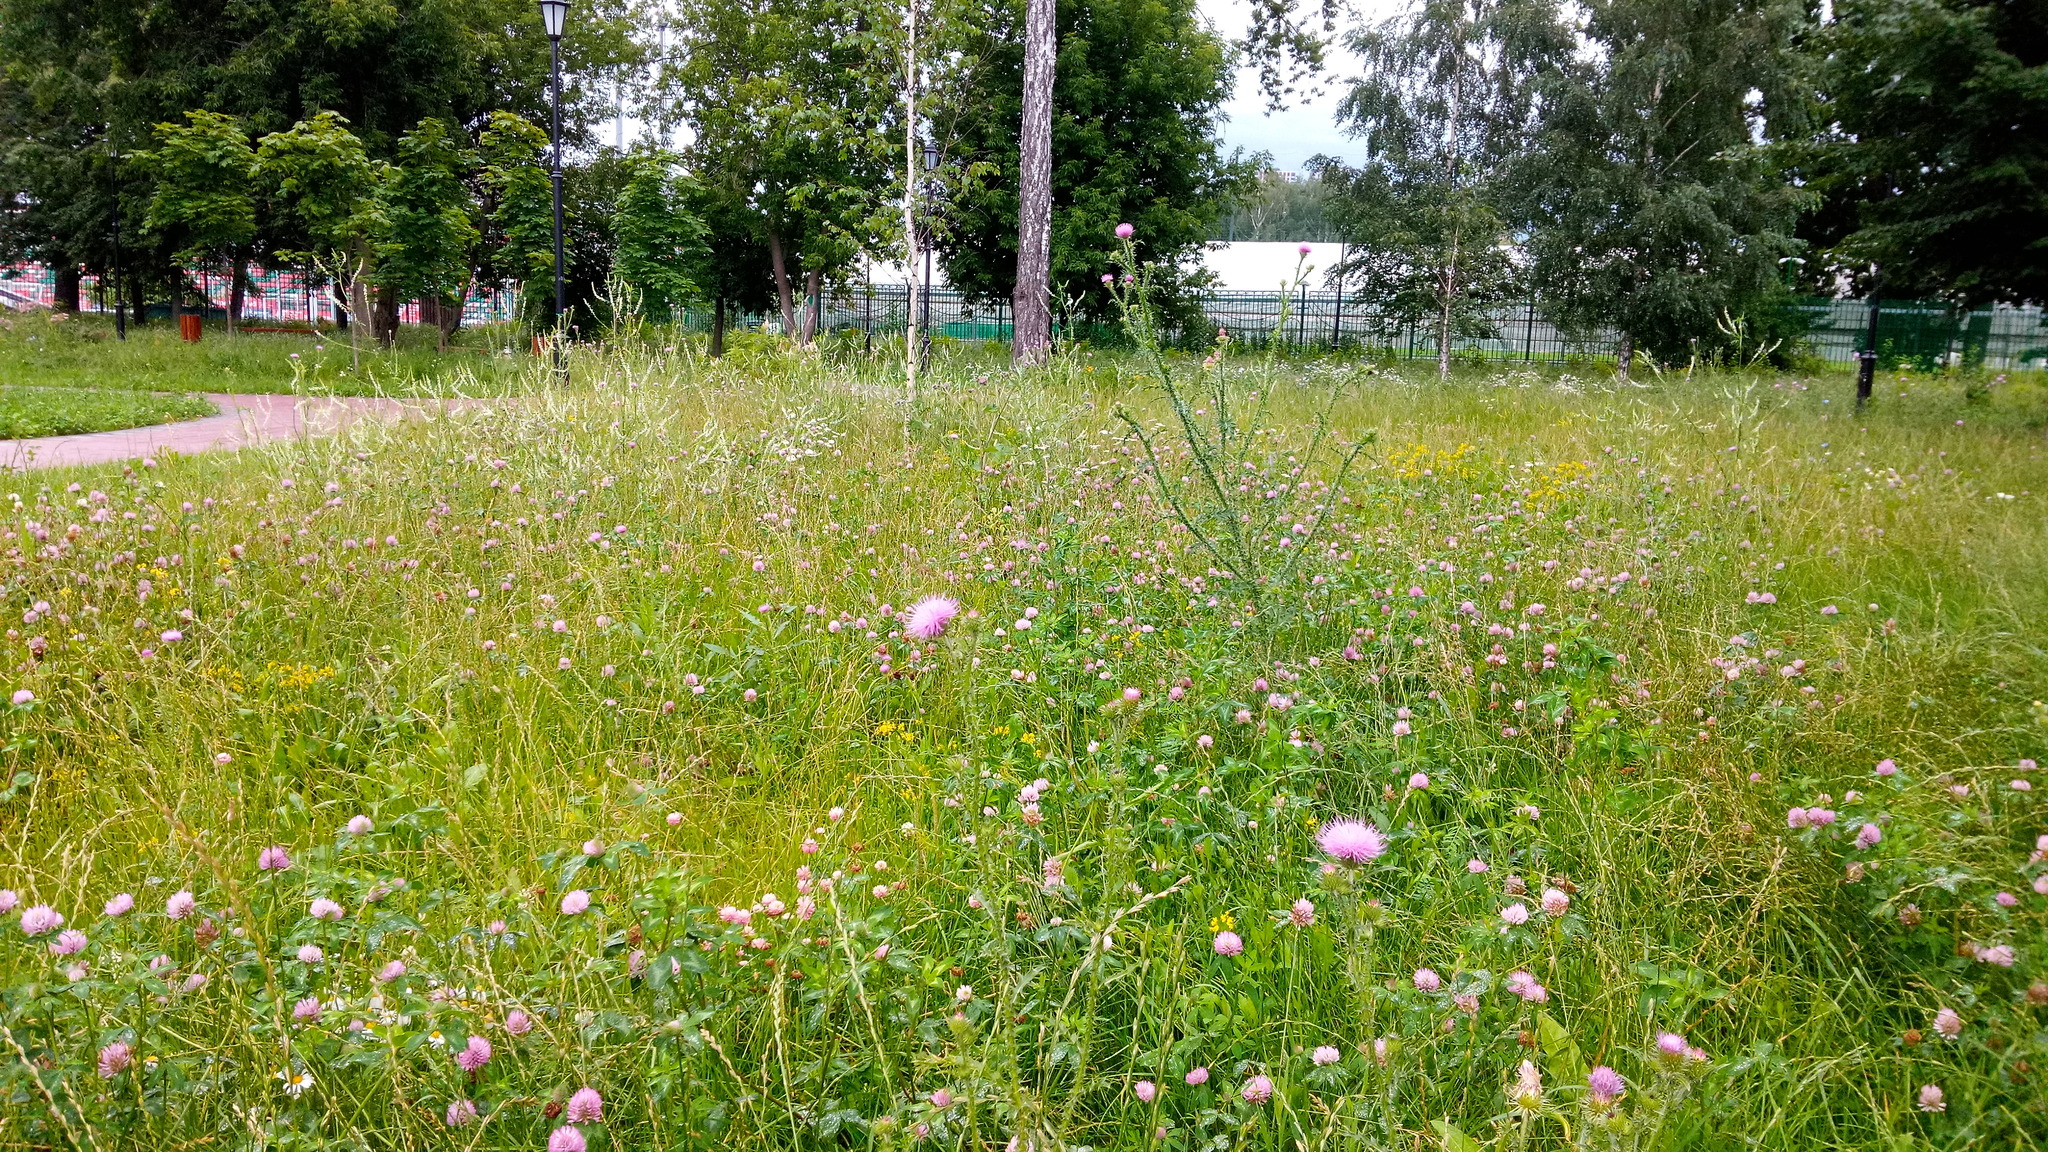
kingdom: Plantae
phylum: Tracheophyta
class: Magnoliopsida
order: Asterales
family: Asteraceae
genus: Carduus
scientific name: Carduus crispus
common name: Welted thistle
